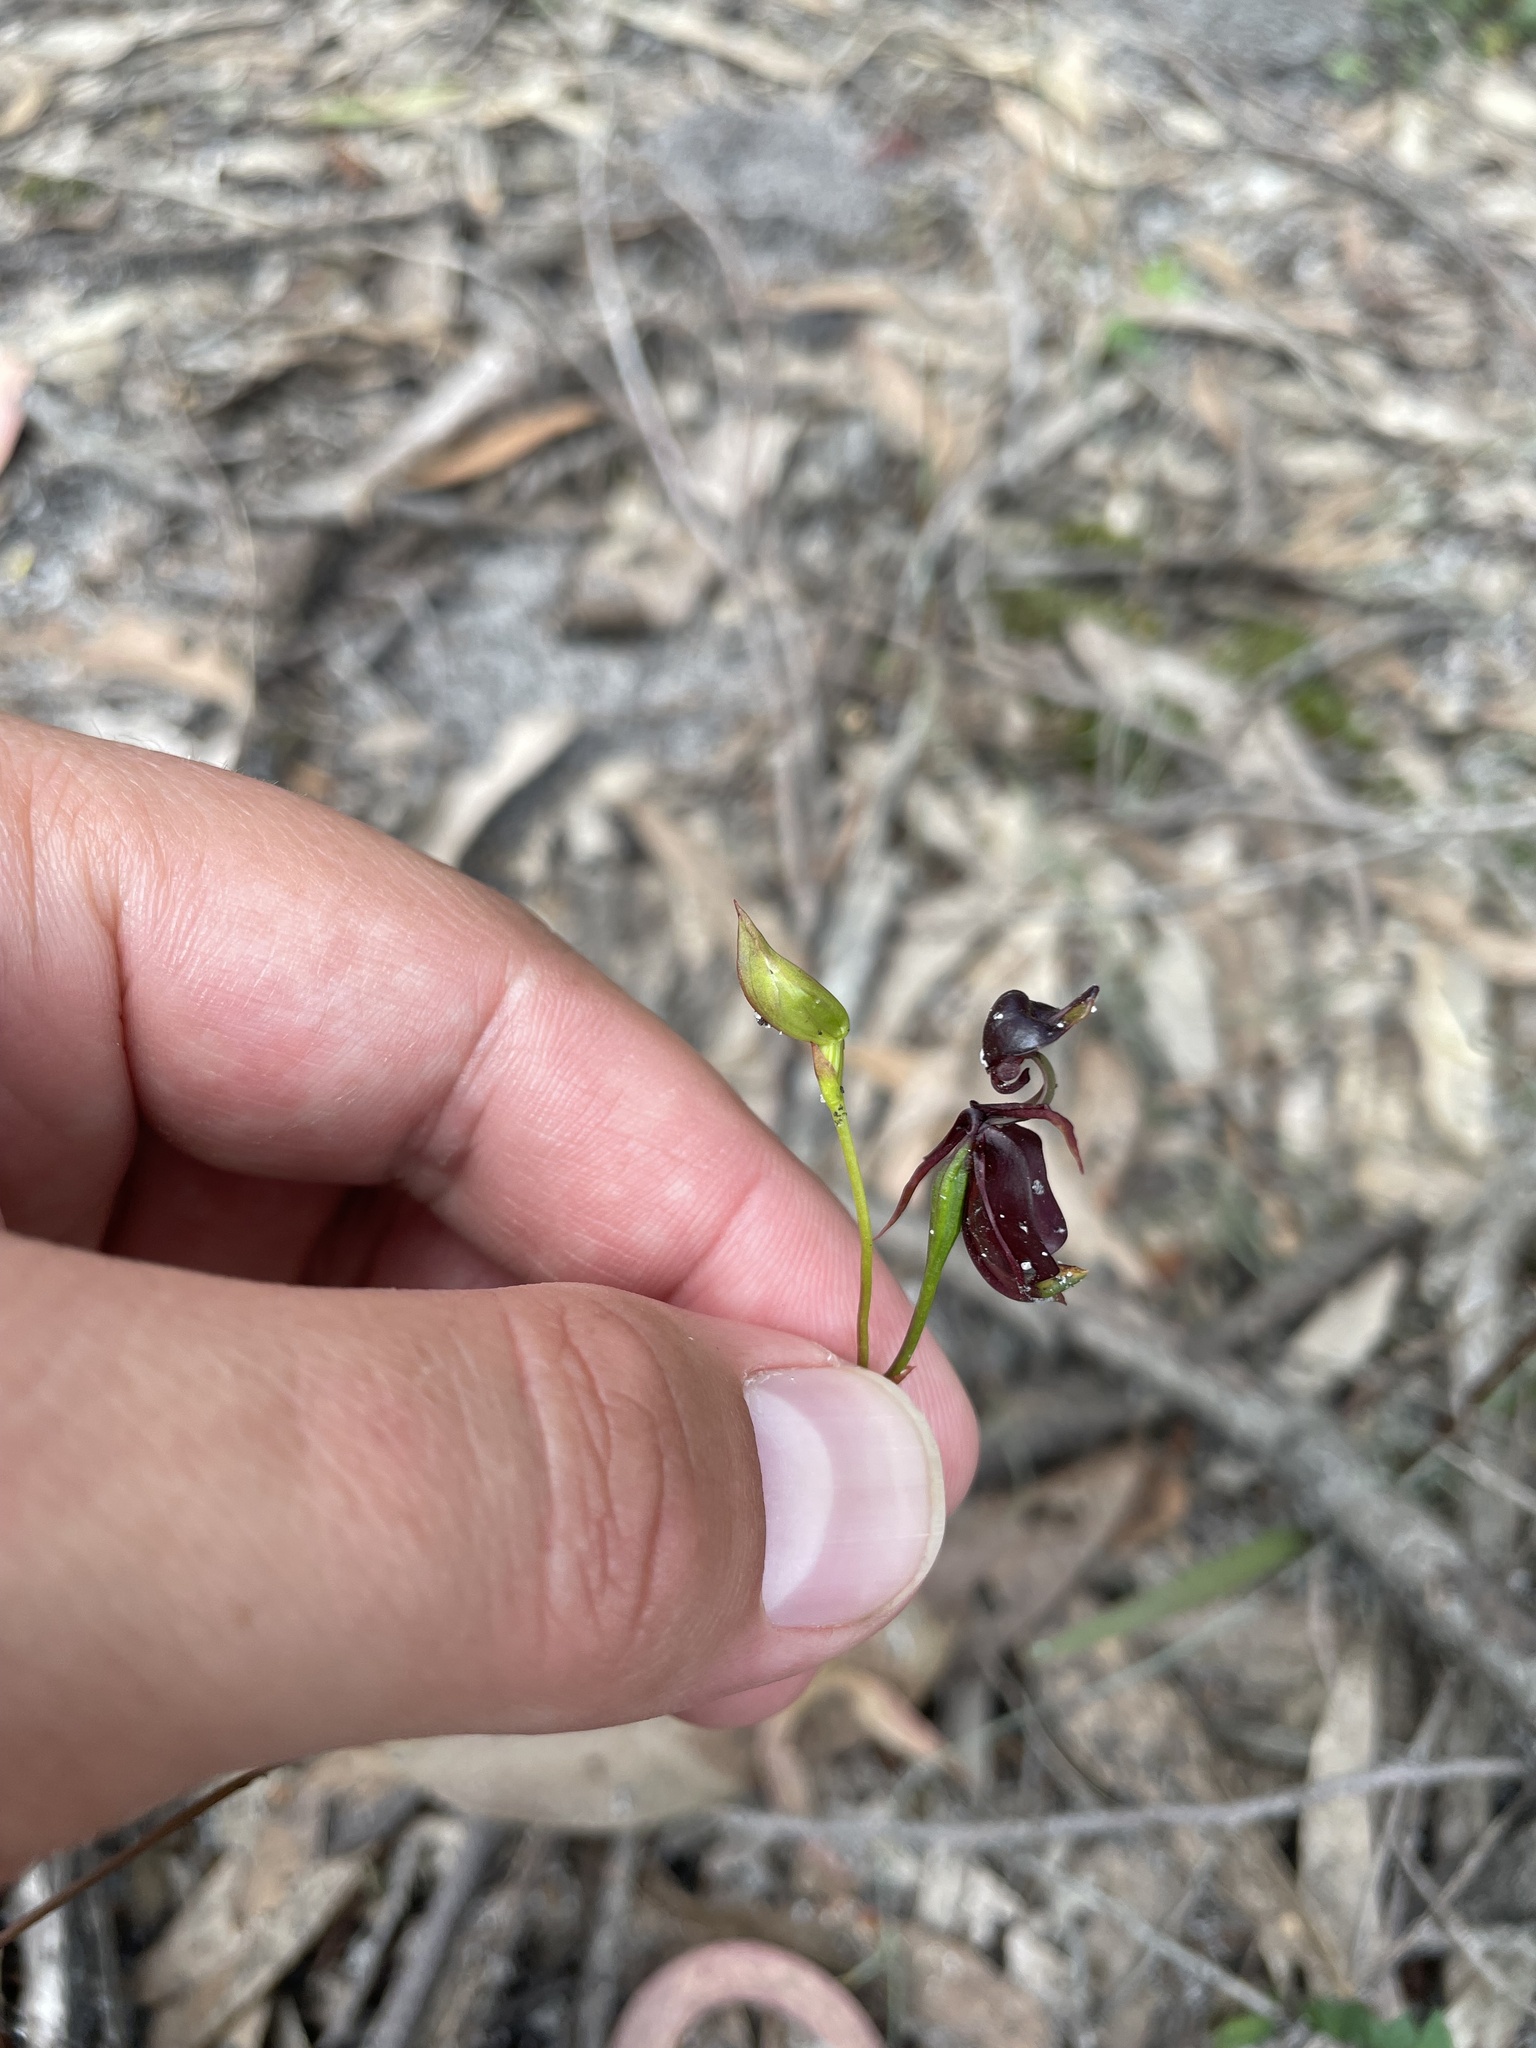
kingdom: Plantae
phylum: Tracheophyta
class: Liliopsida
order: Asparagales
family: Orchidaceae
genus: Caleana
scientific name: Caleana major
